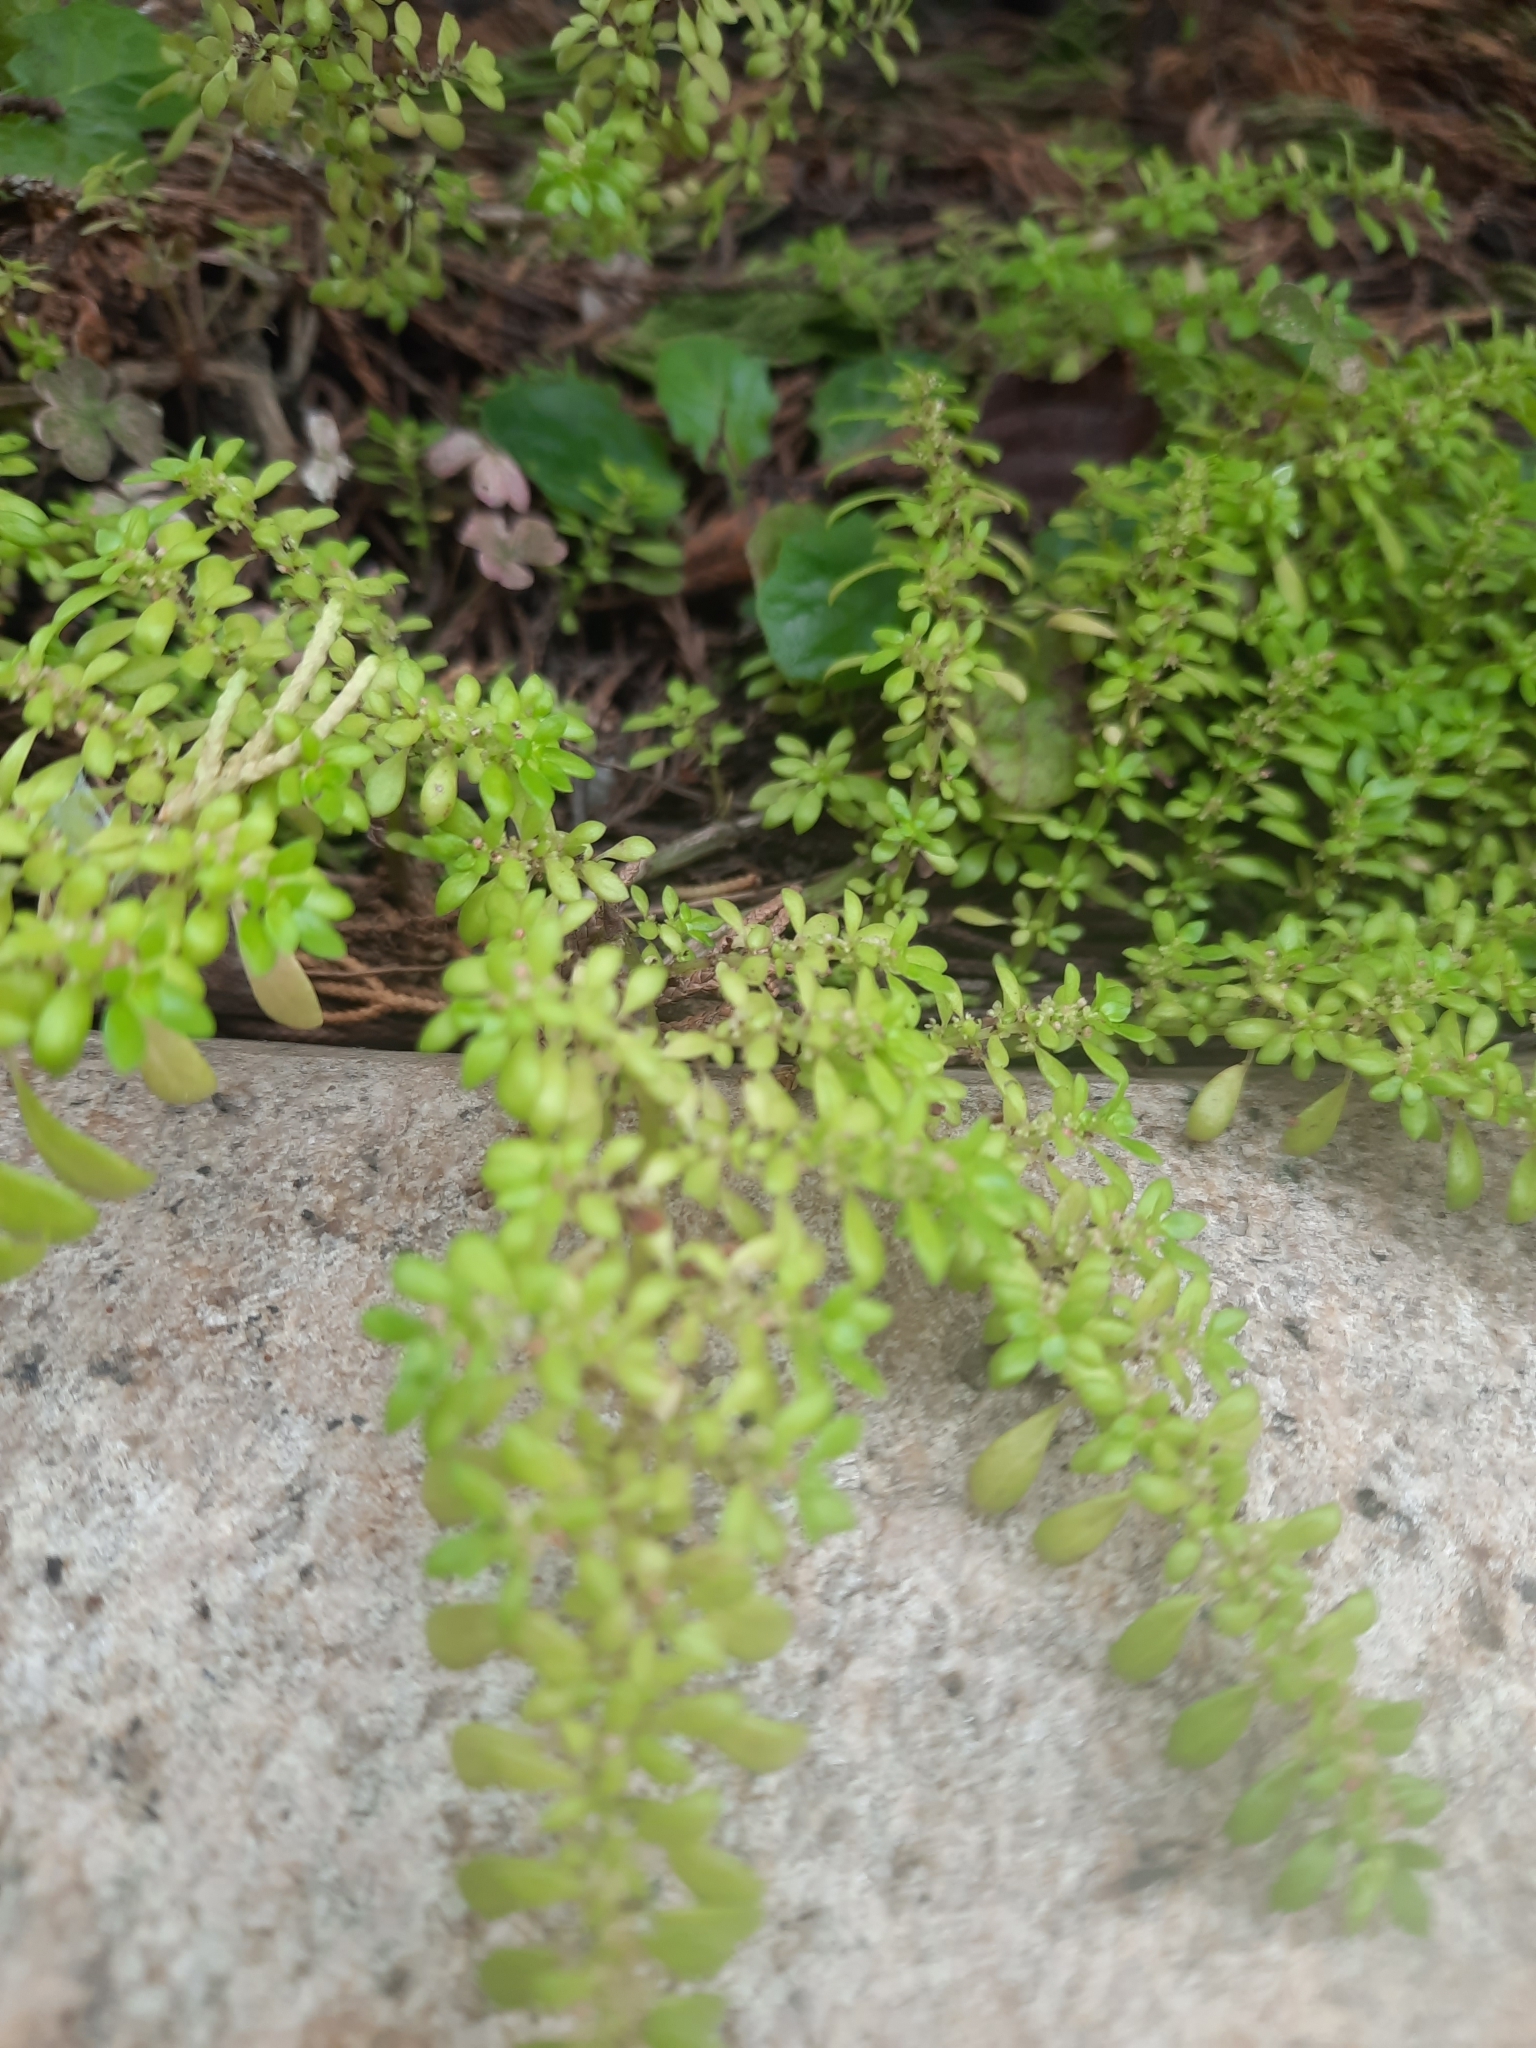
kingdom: Plantae
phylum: Tracheophyta
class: Magnoliopsida
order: Rosales
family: Urticaceae
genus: Pilea
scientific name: Pilea microphylla
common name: Artillery-plant
